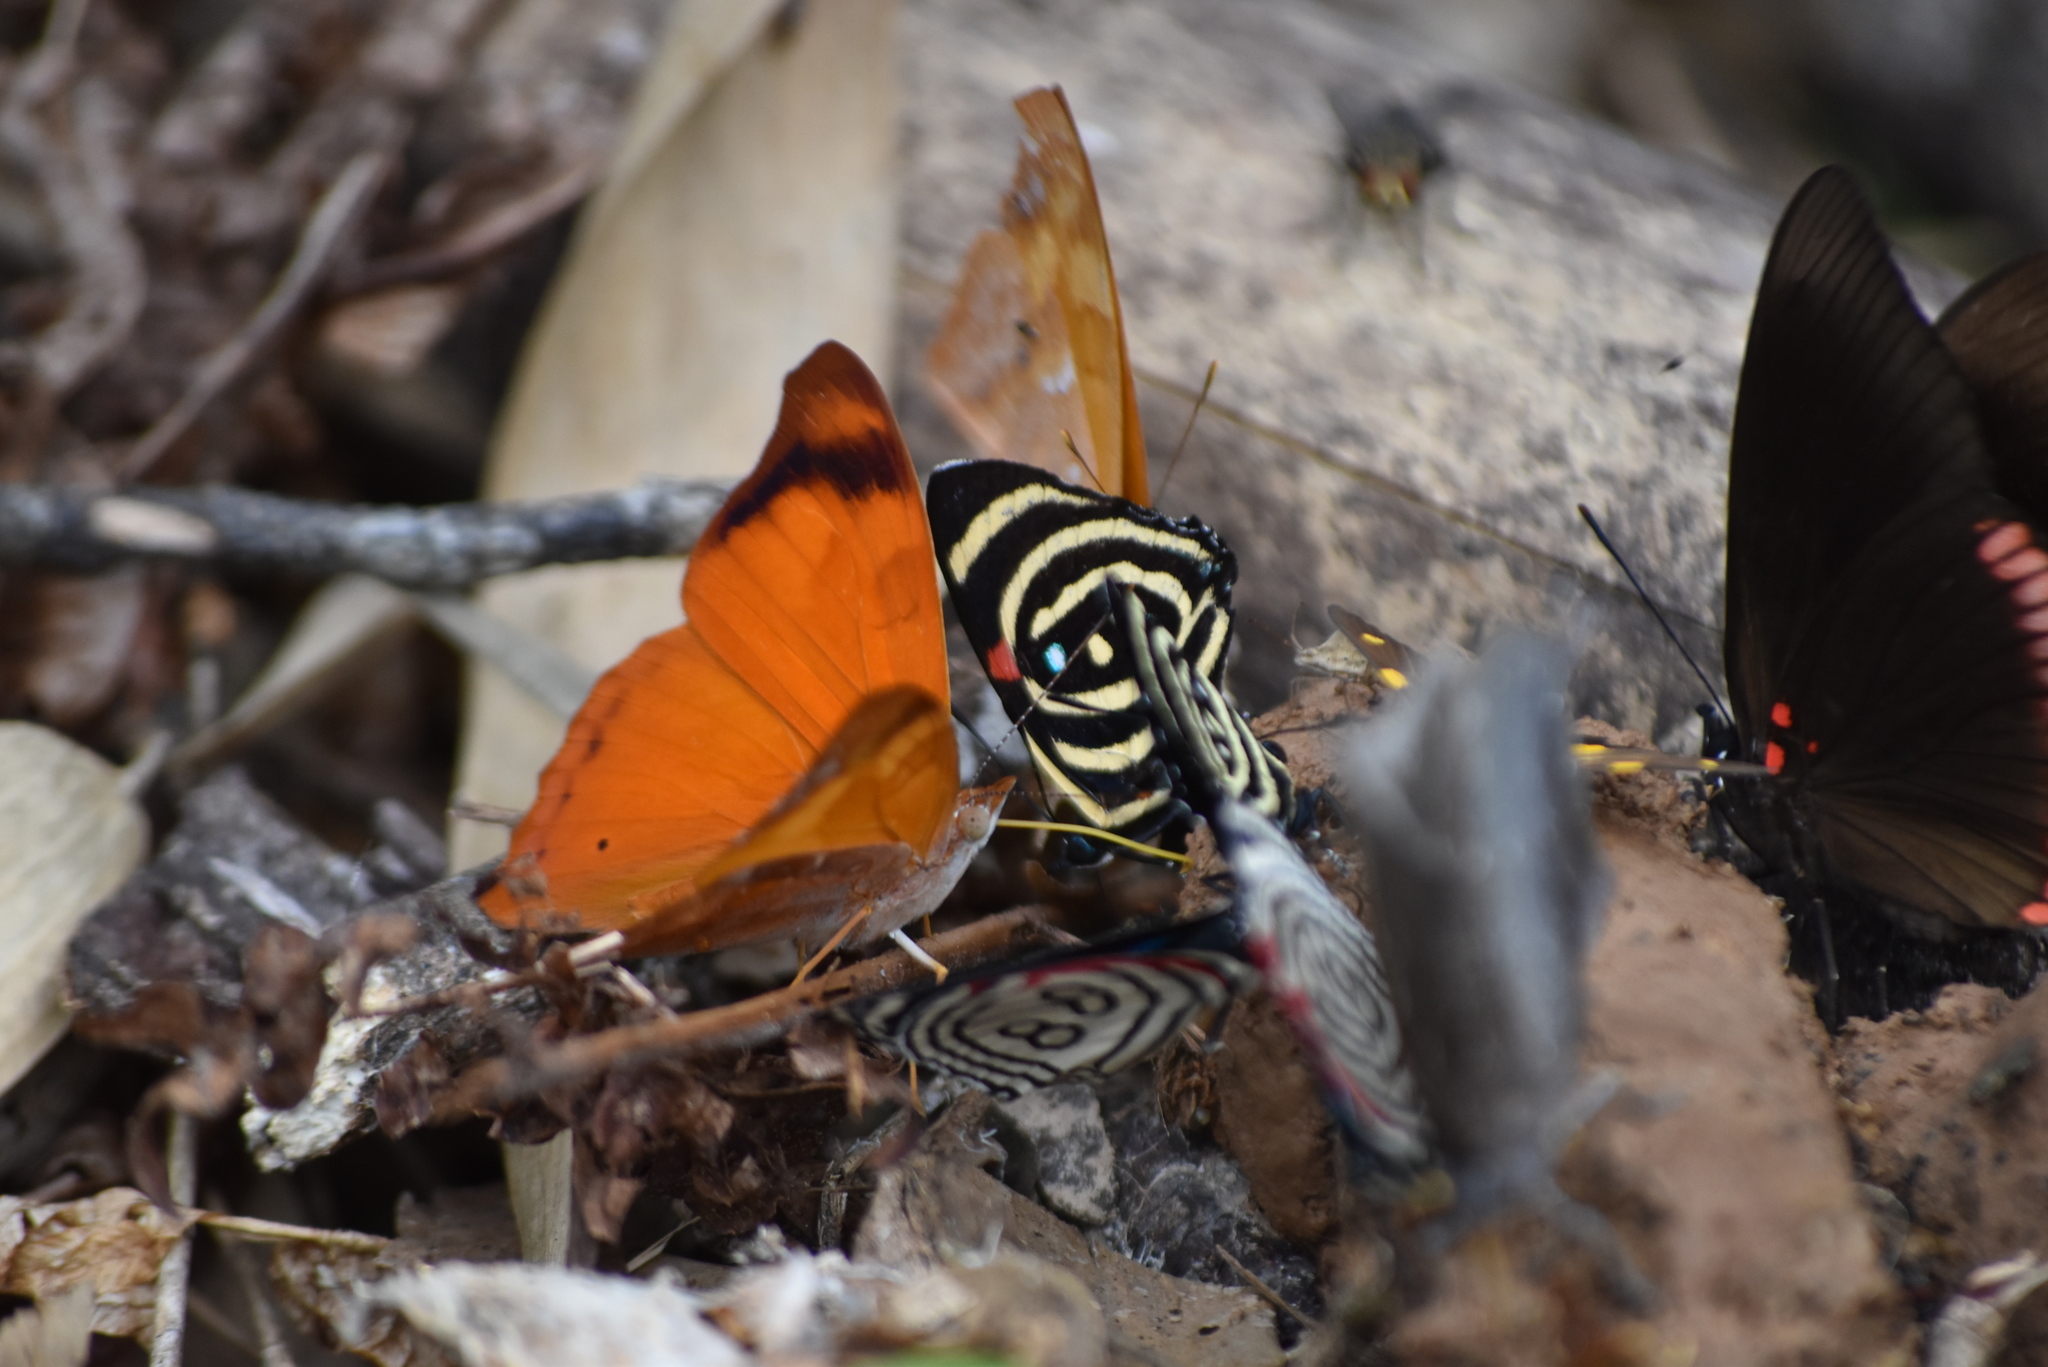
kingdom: Animalia
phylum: Arthropoda
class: Insecta
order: Lepidoptera
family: Nymphalidae
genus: Temenis
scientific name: Temenis laothoe
